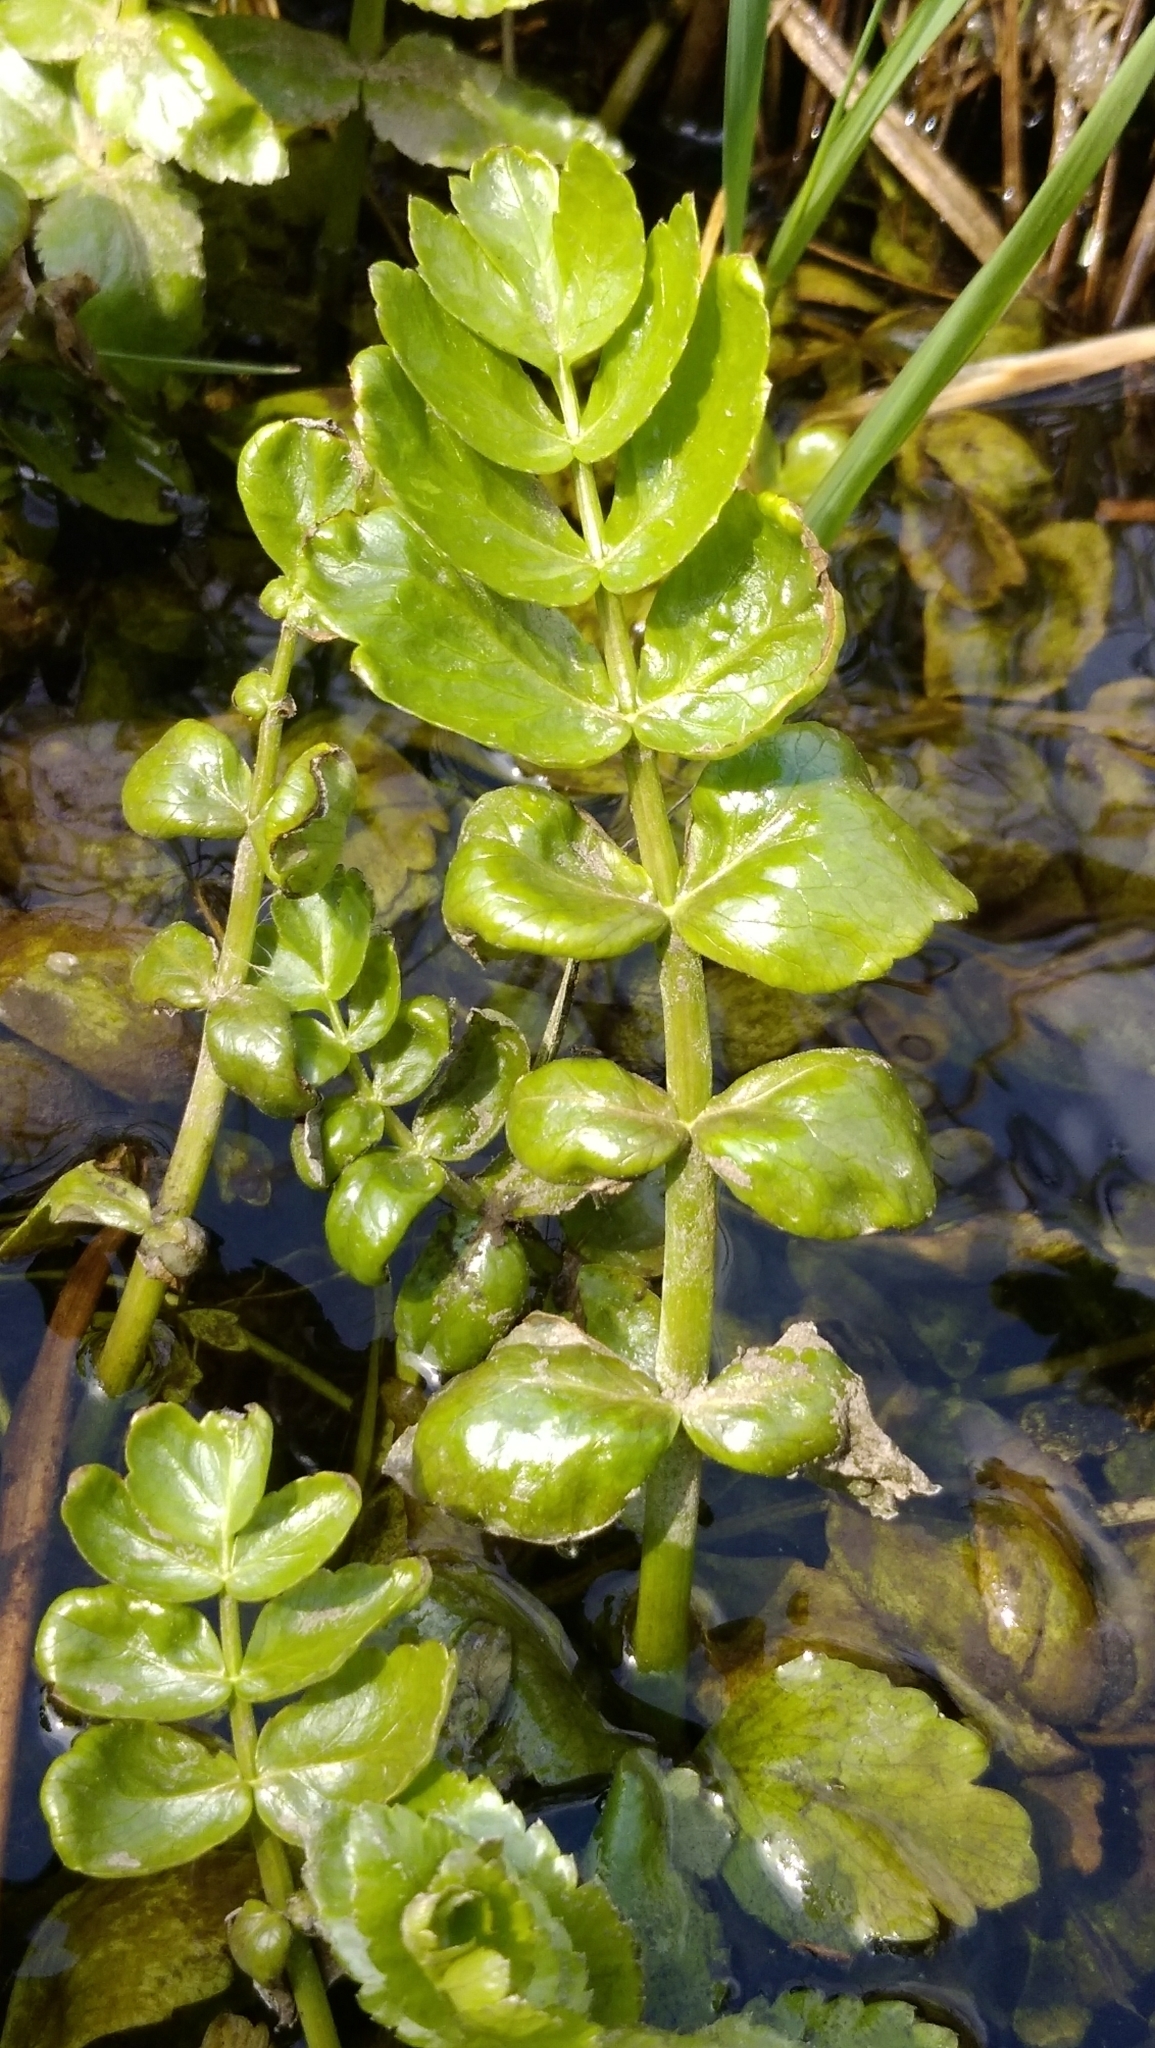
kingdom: Plantae
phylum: Tracheophyta
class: Magnoliopsida
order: Apiales
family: Apiaceae
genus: Berula
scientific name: Berula erecta
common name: Lesser water-parsnip
